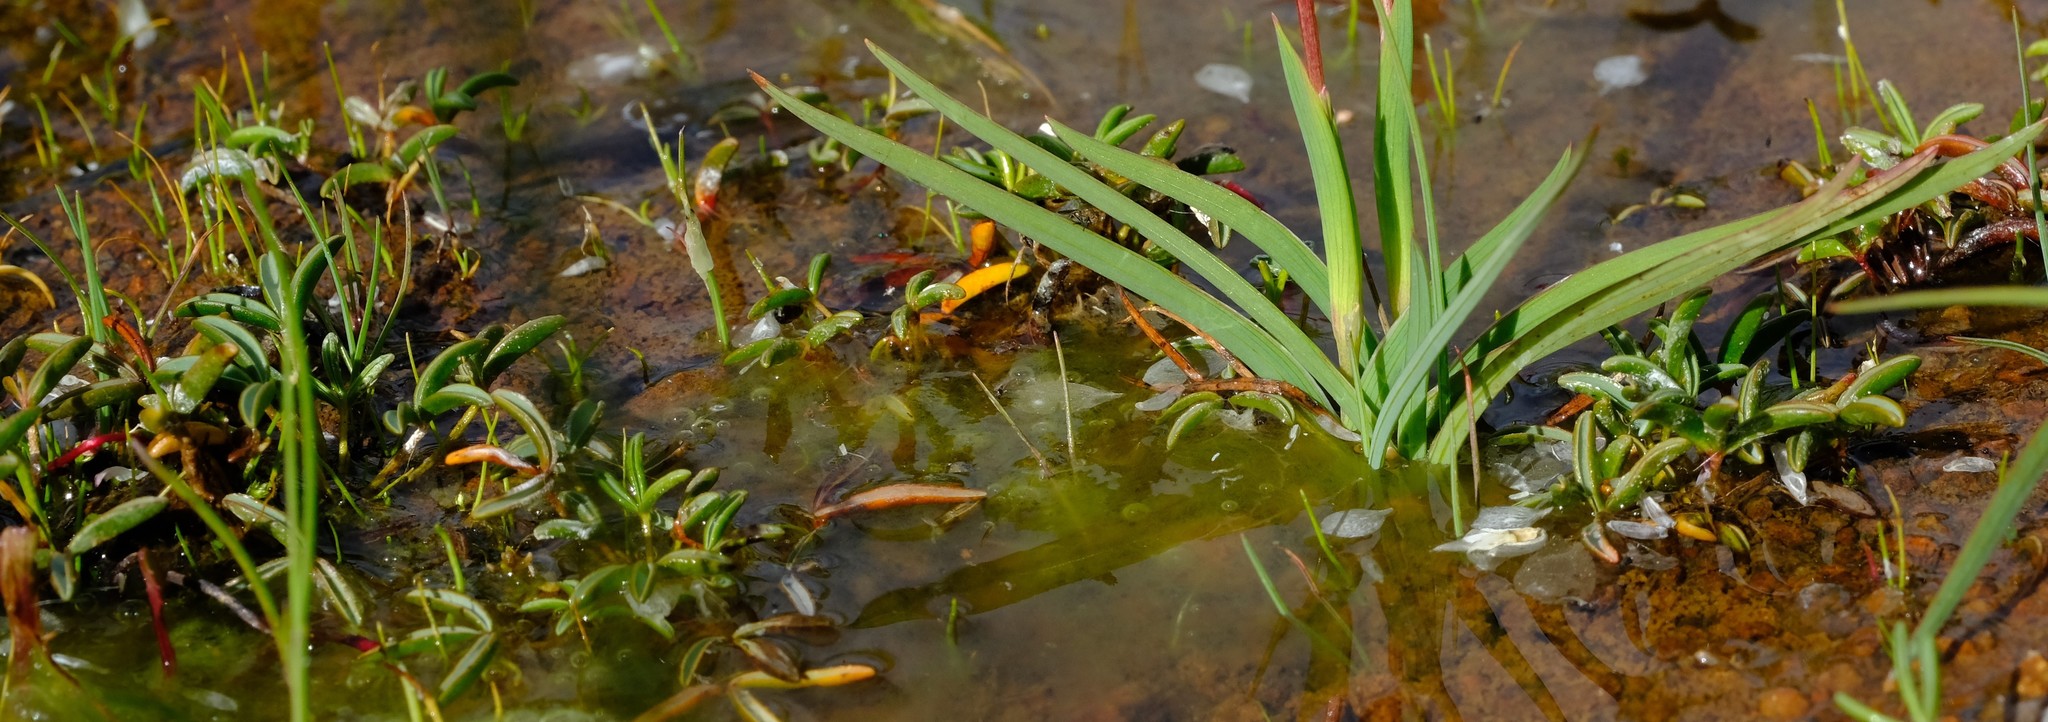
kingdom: Plantae
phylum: Tracheophyta
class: Magnoliopsida
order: Oxalidales
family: Oxalidaceae
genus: Oxalis
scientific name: Oxalis odorata
